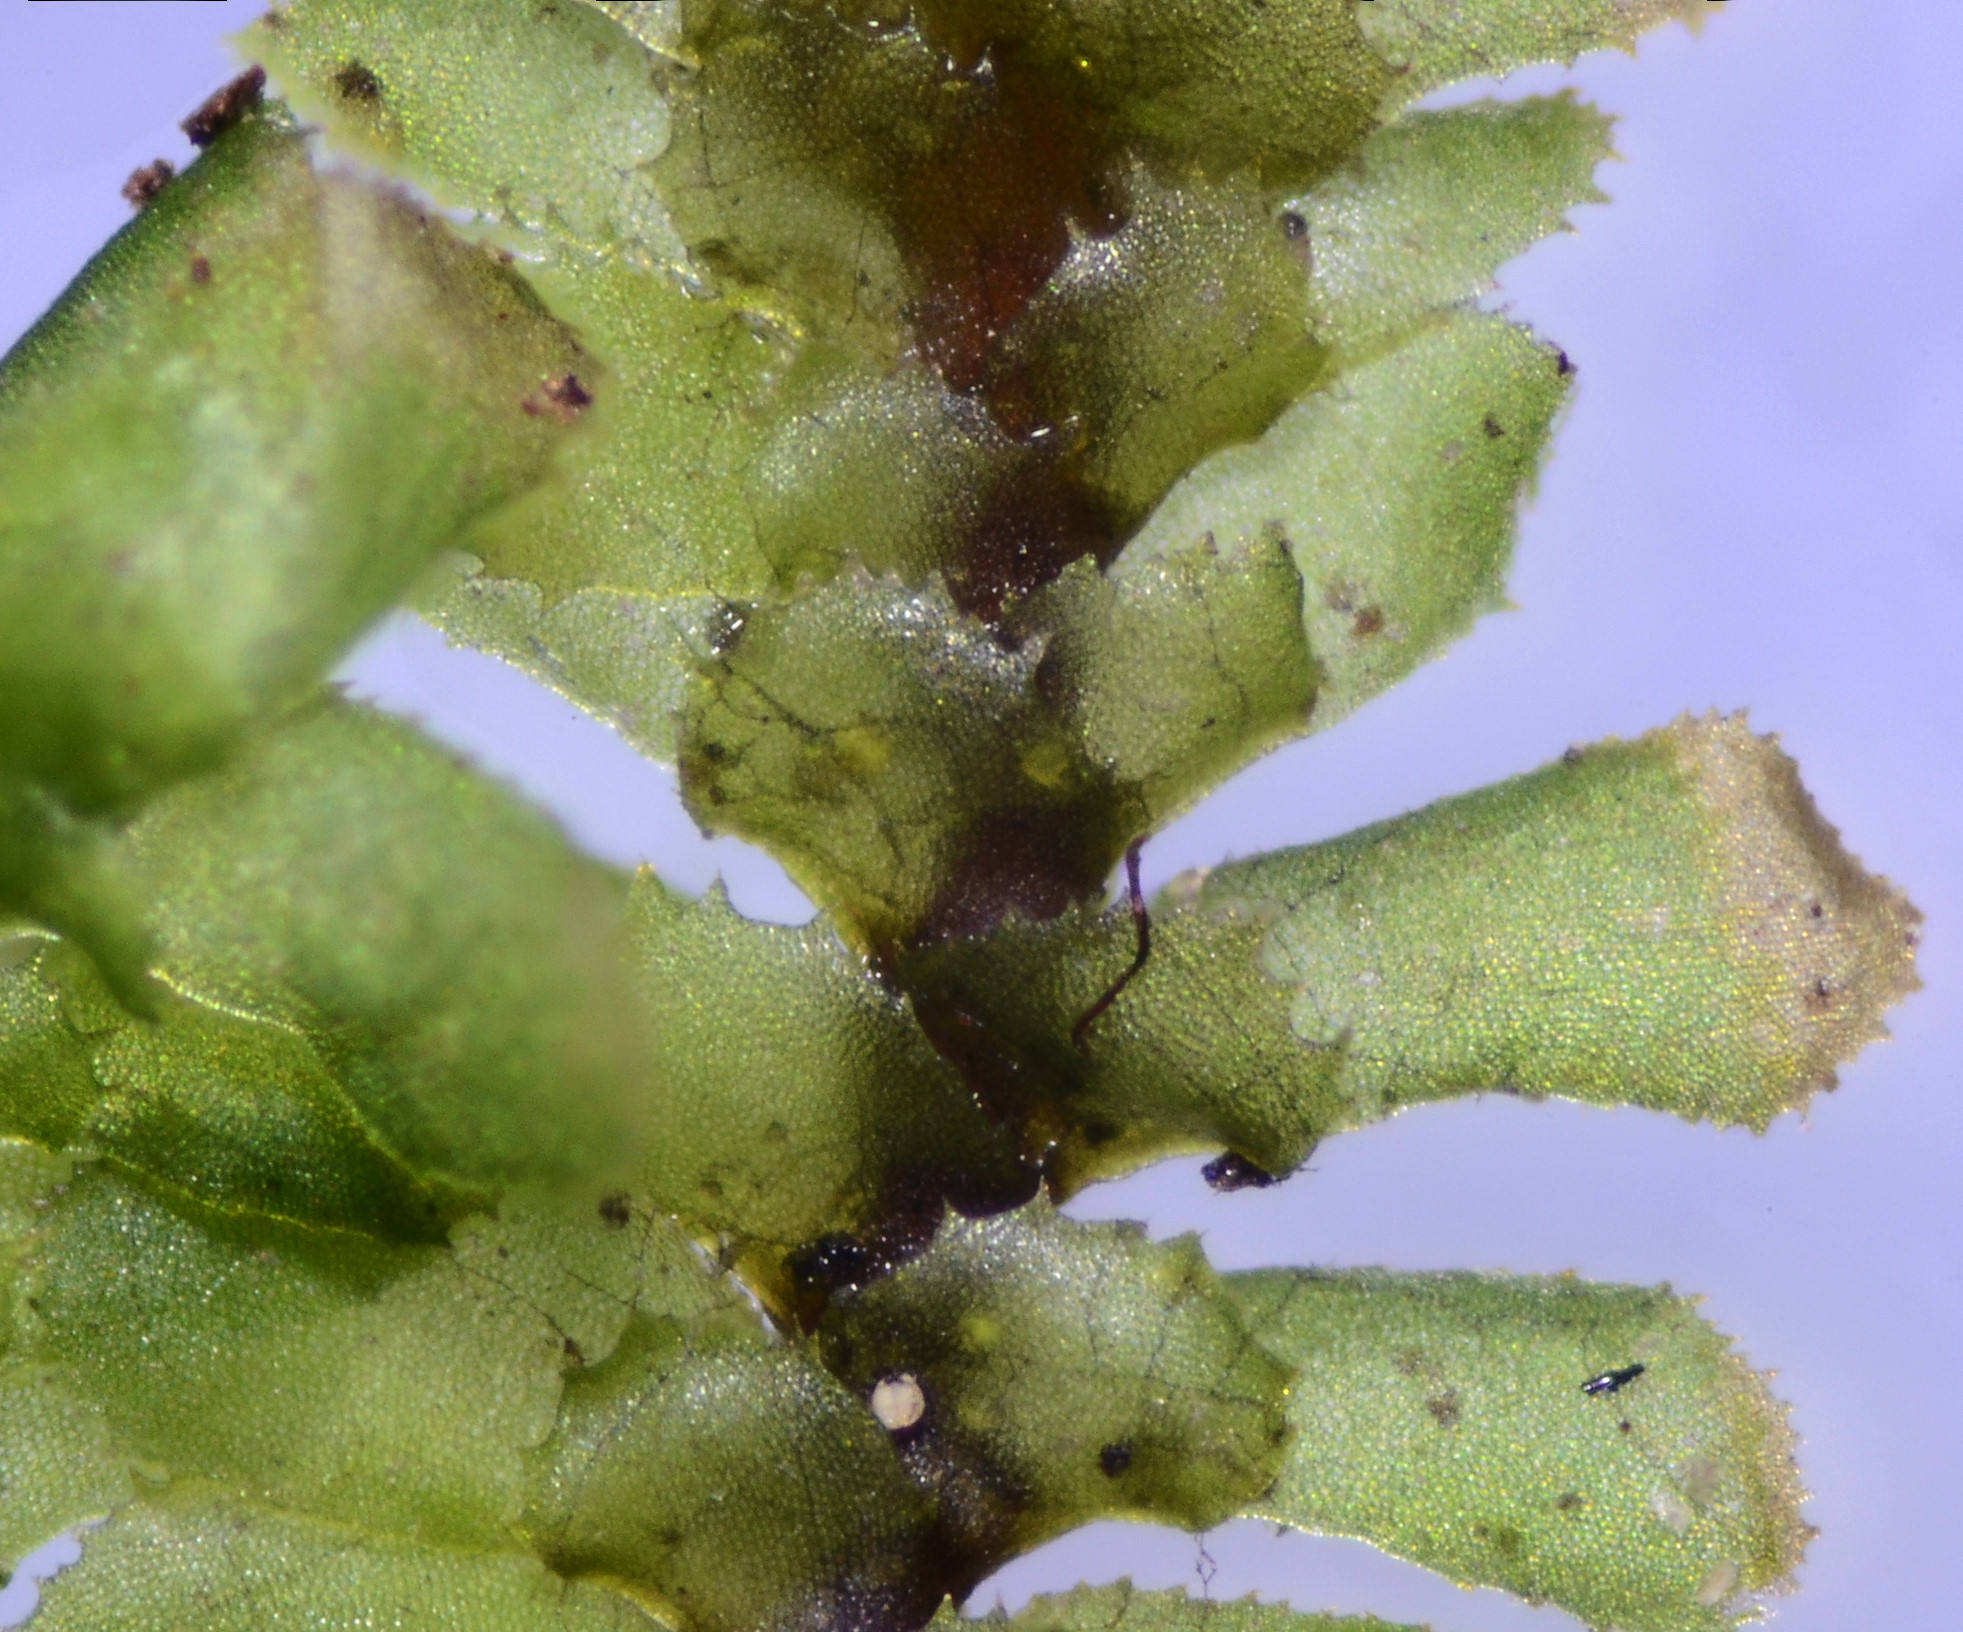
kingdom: Plantae
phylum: Marchantiophyta
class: Jungermanniopsida
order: Jungermanniales
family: Scapaniaceae
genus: Scapania
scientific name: Scapania bolanderi
